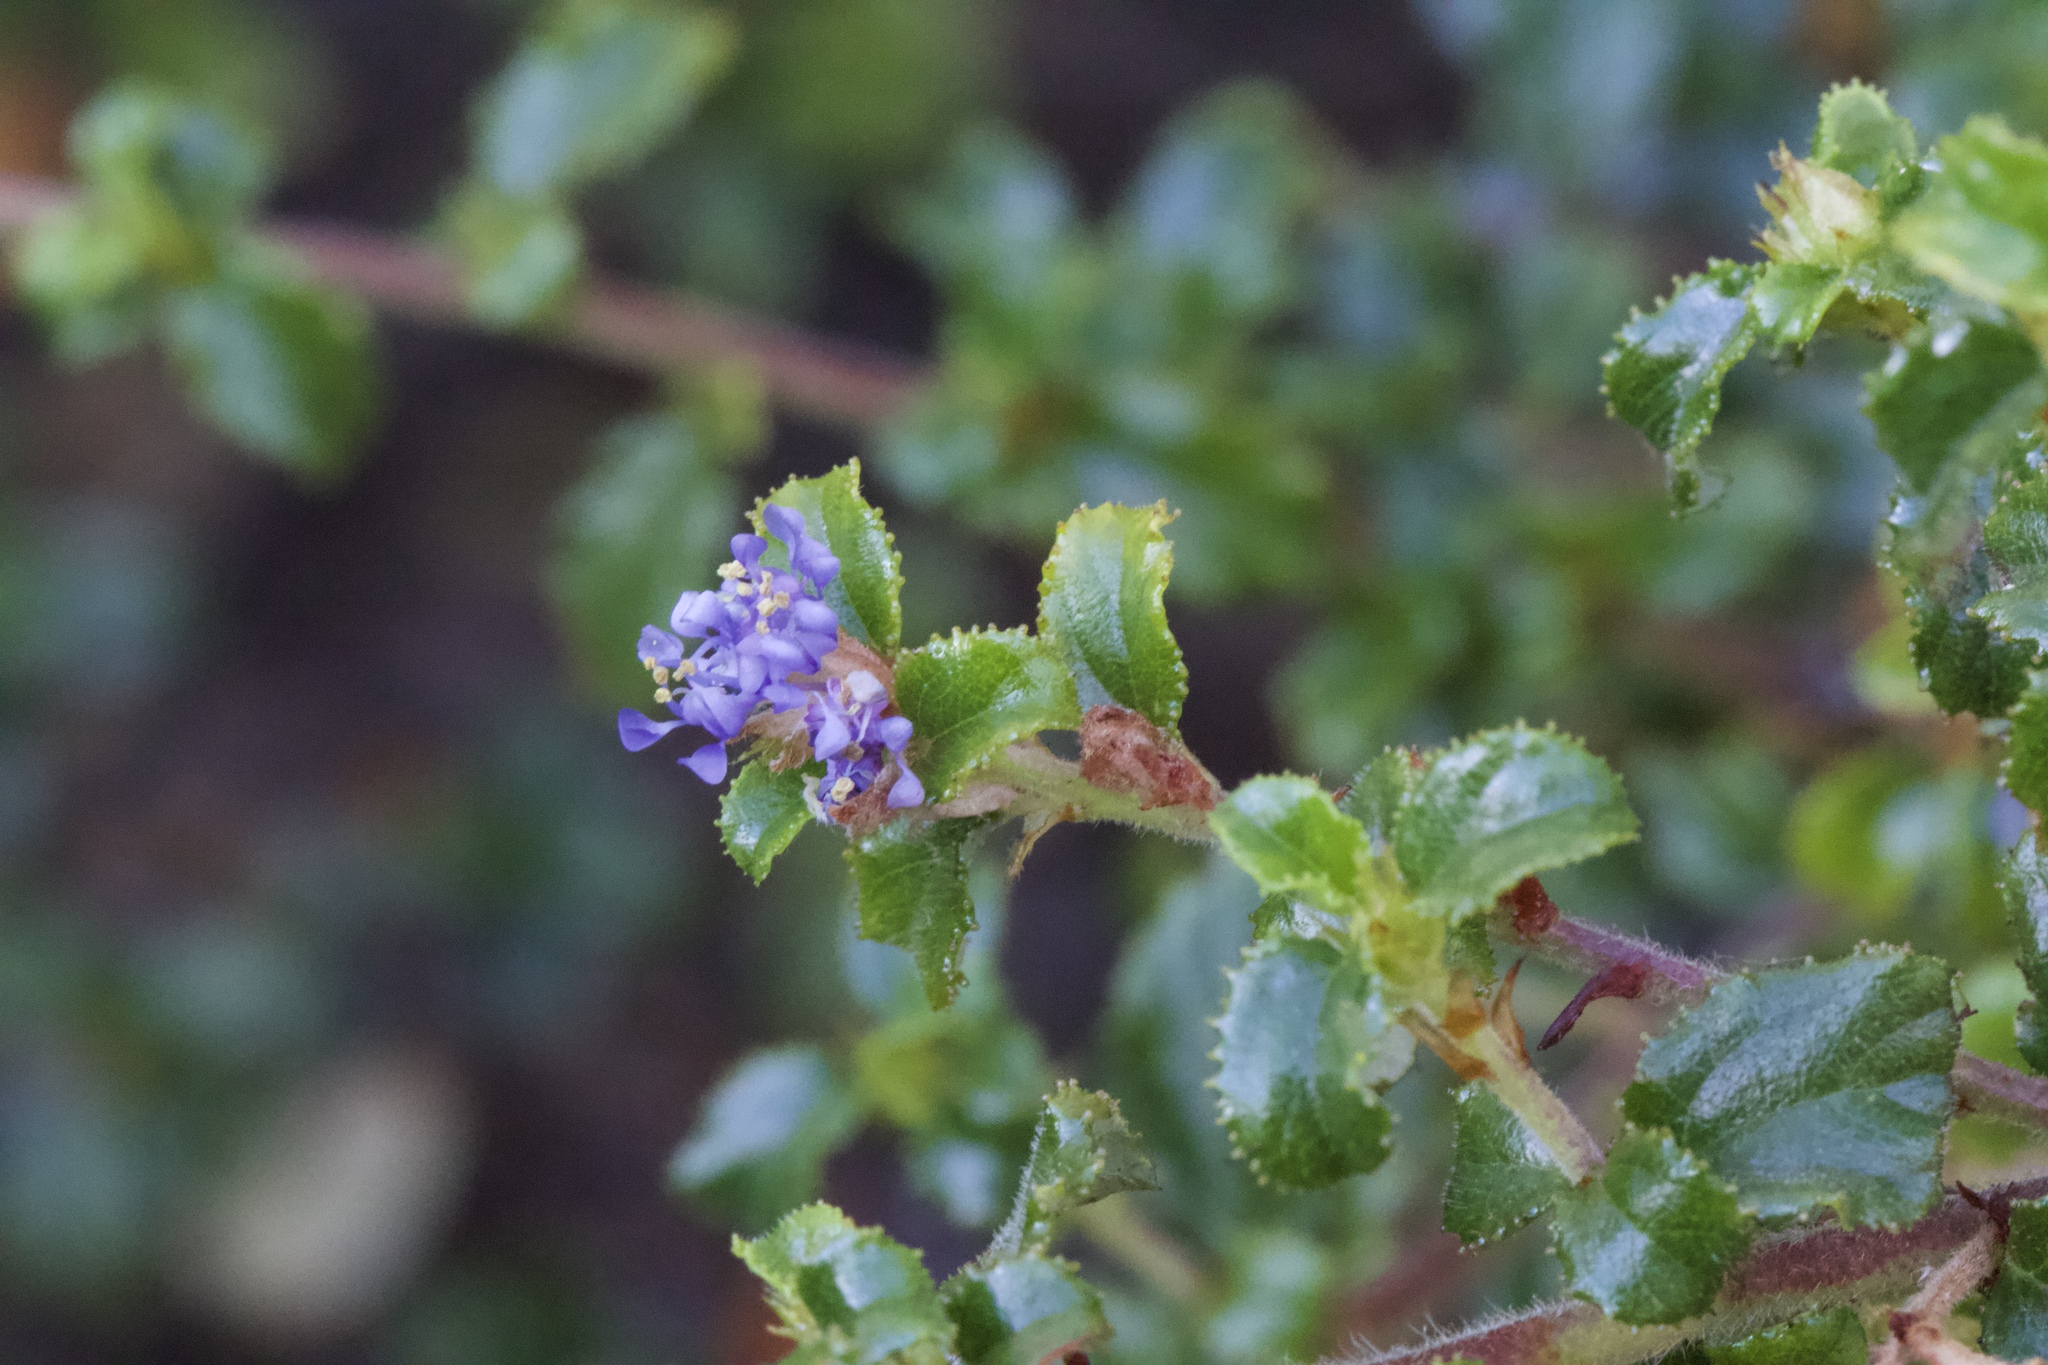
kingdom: Plantae
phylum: Tracheophyta
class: Magnoliopsida
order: Rosales
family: Rhamnaceae
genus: Ceanothus
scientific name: Ceanothus foliosus
